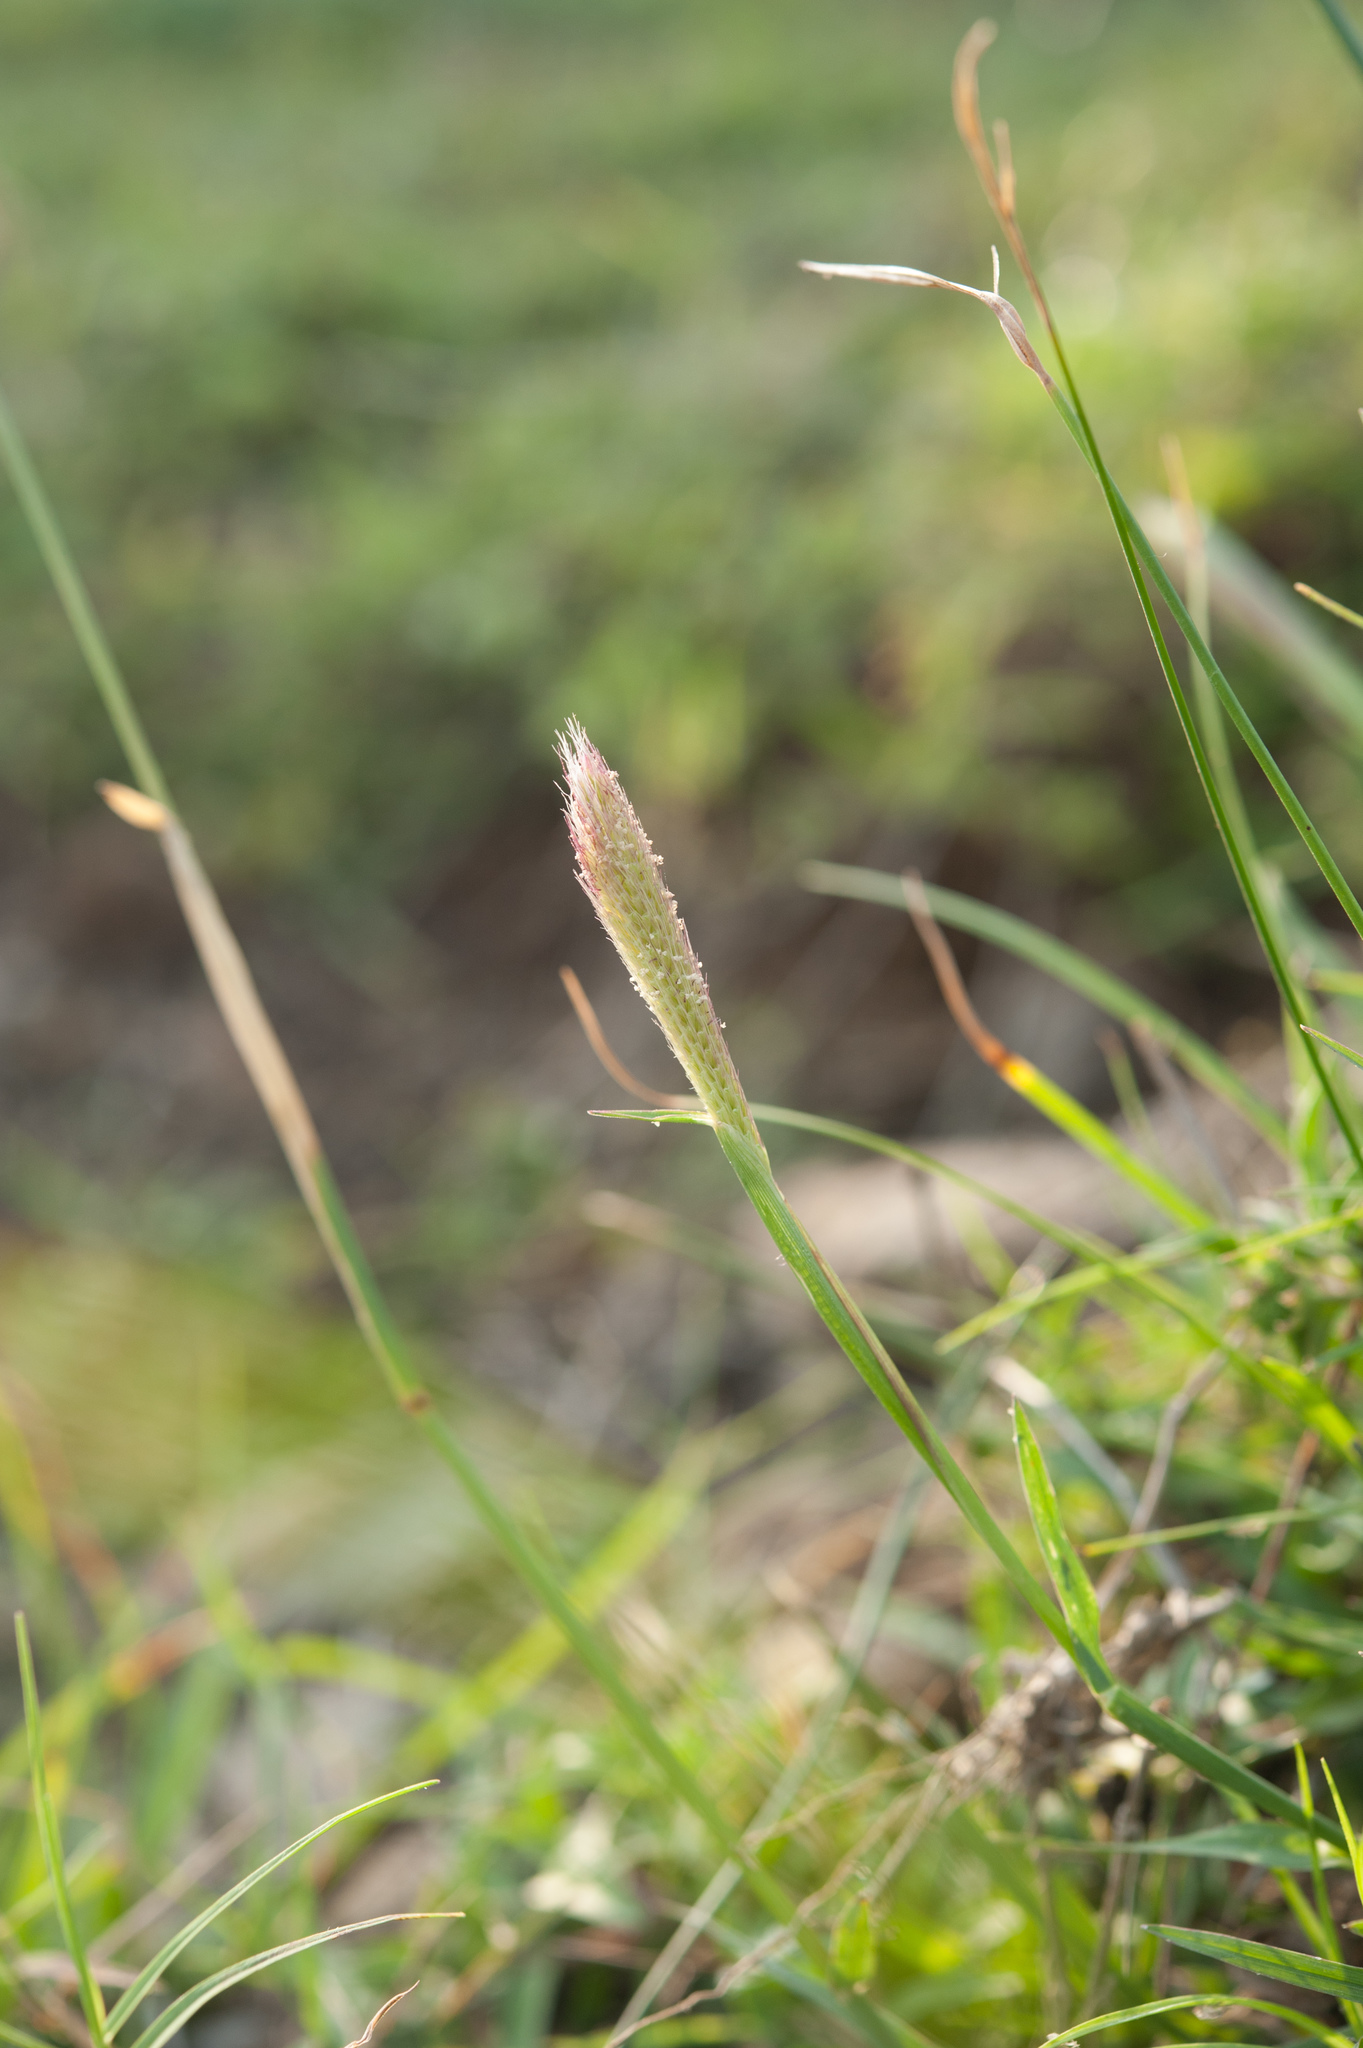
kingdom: Plantae
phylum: Tracheophyta
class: Liliopsida
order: Poales
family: Poaceae
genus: Chloris
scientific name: Chloris formosana
